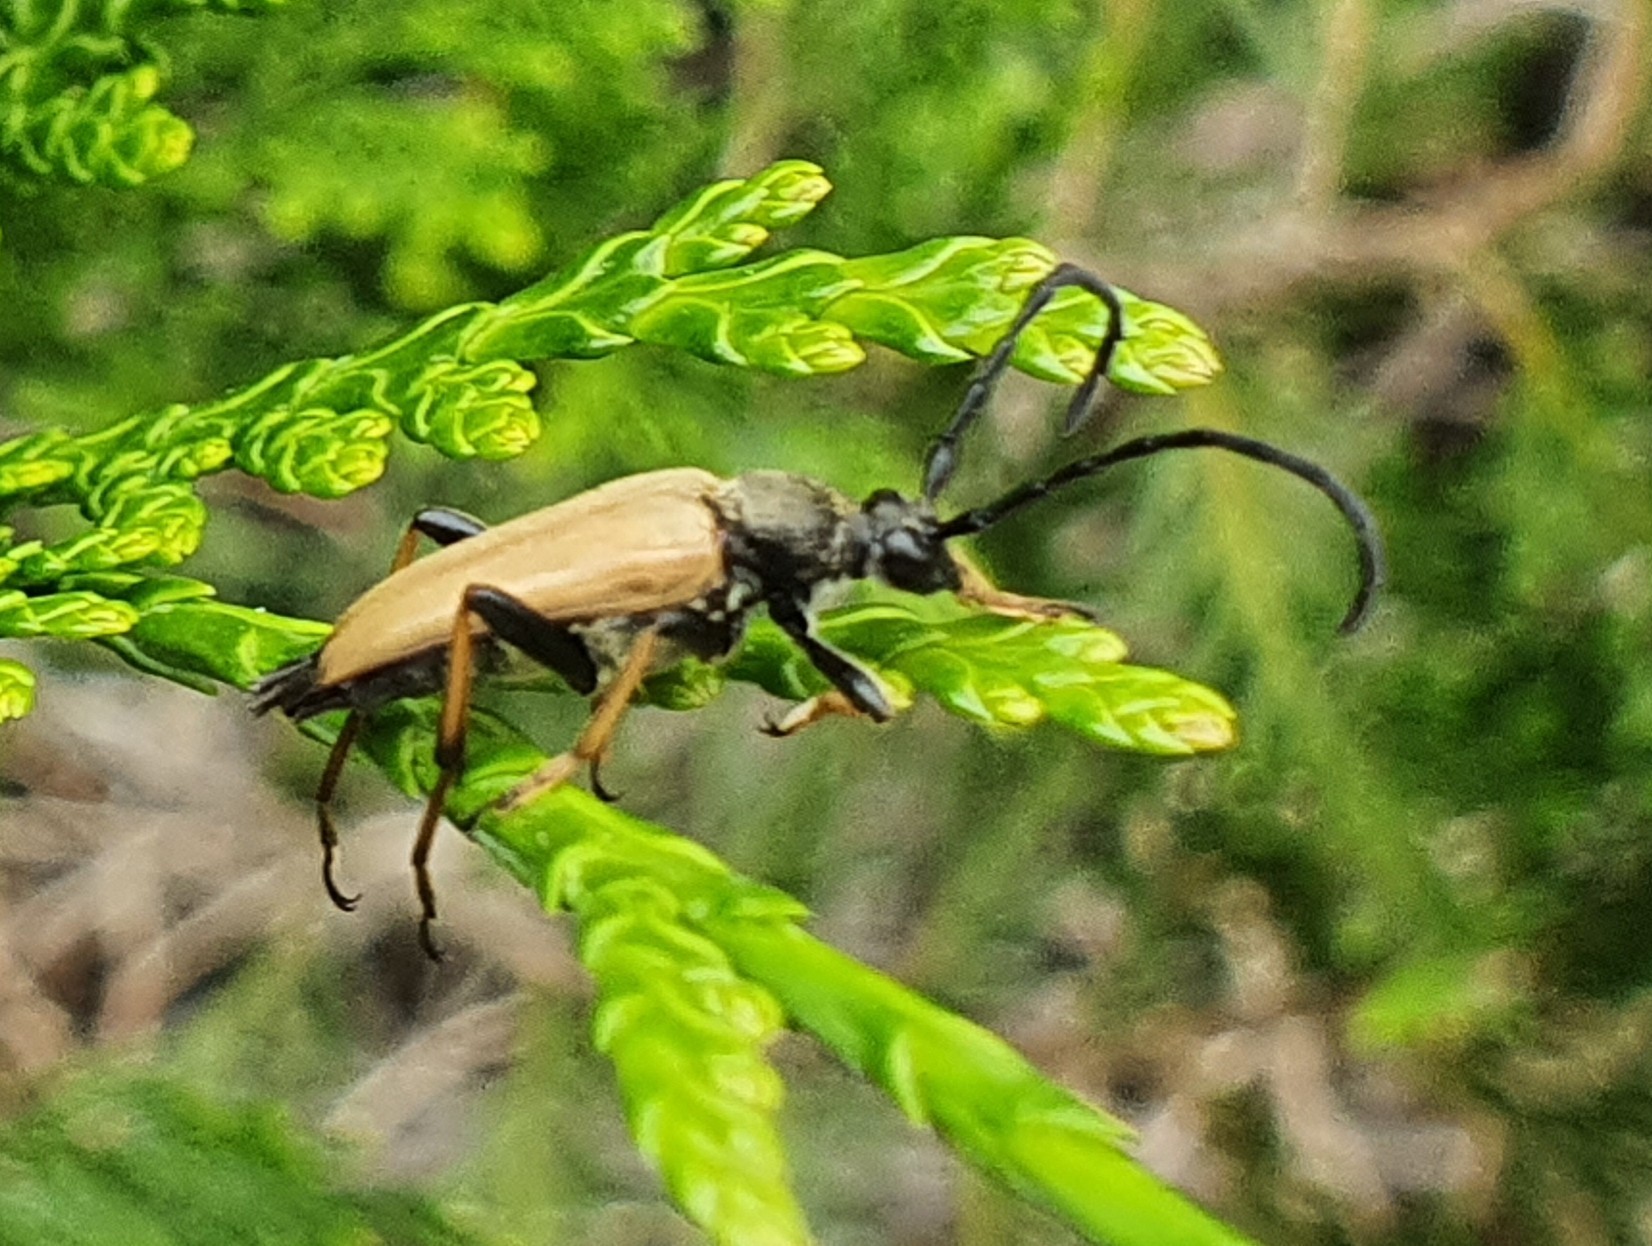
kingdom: Animalia
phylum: Arthropoda
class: Insecta
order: Coleoptera
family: Cerambycidae
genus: Stictoleptura
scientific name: Stictoleptura rubra
